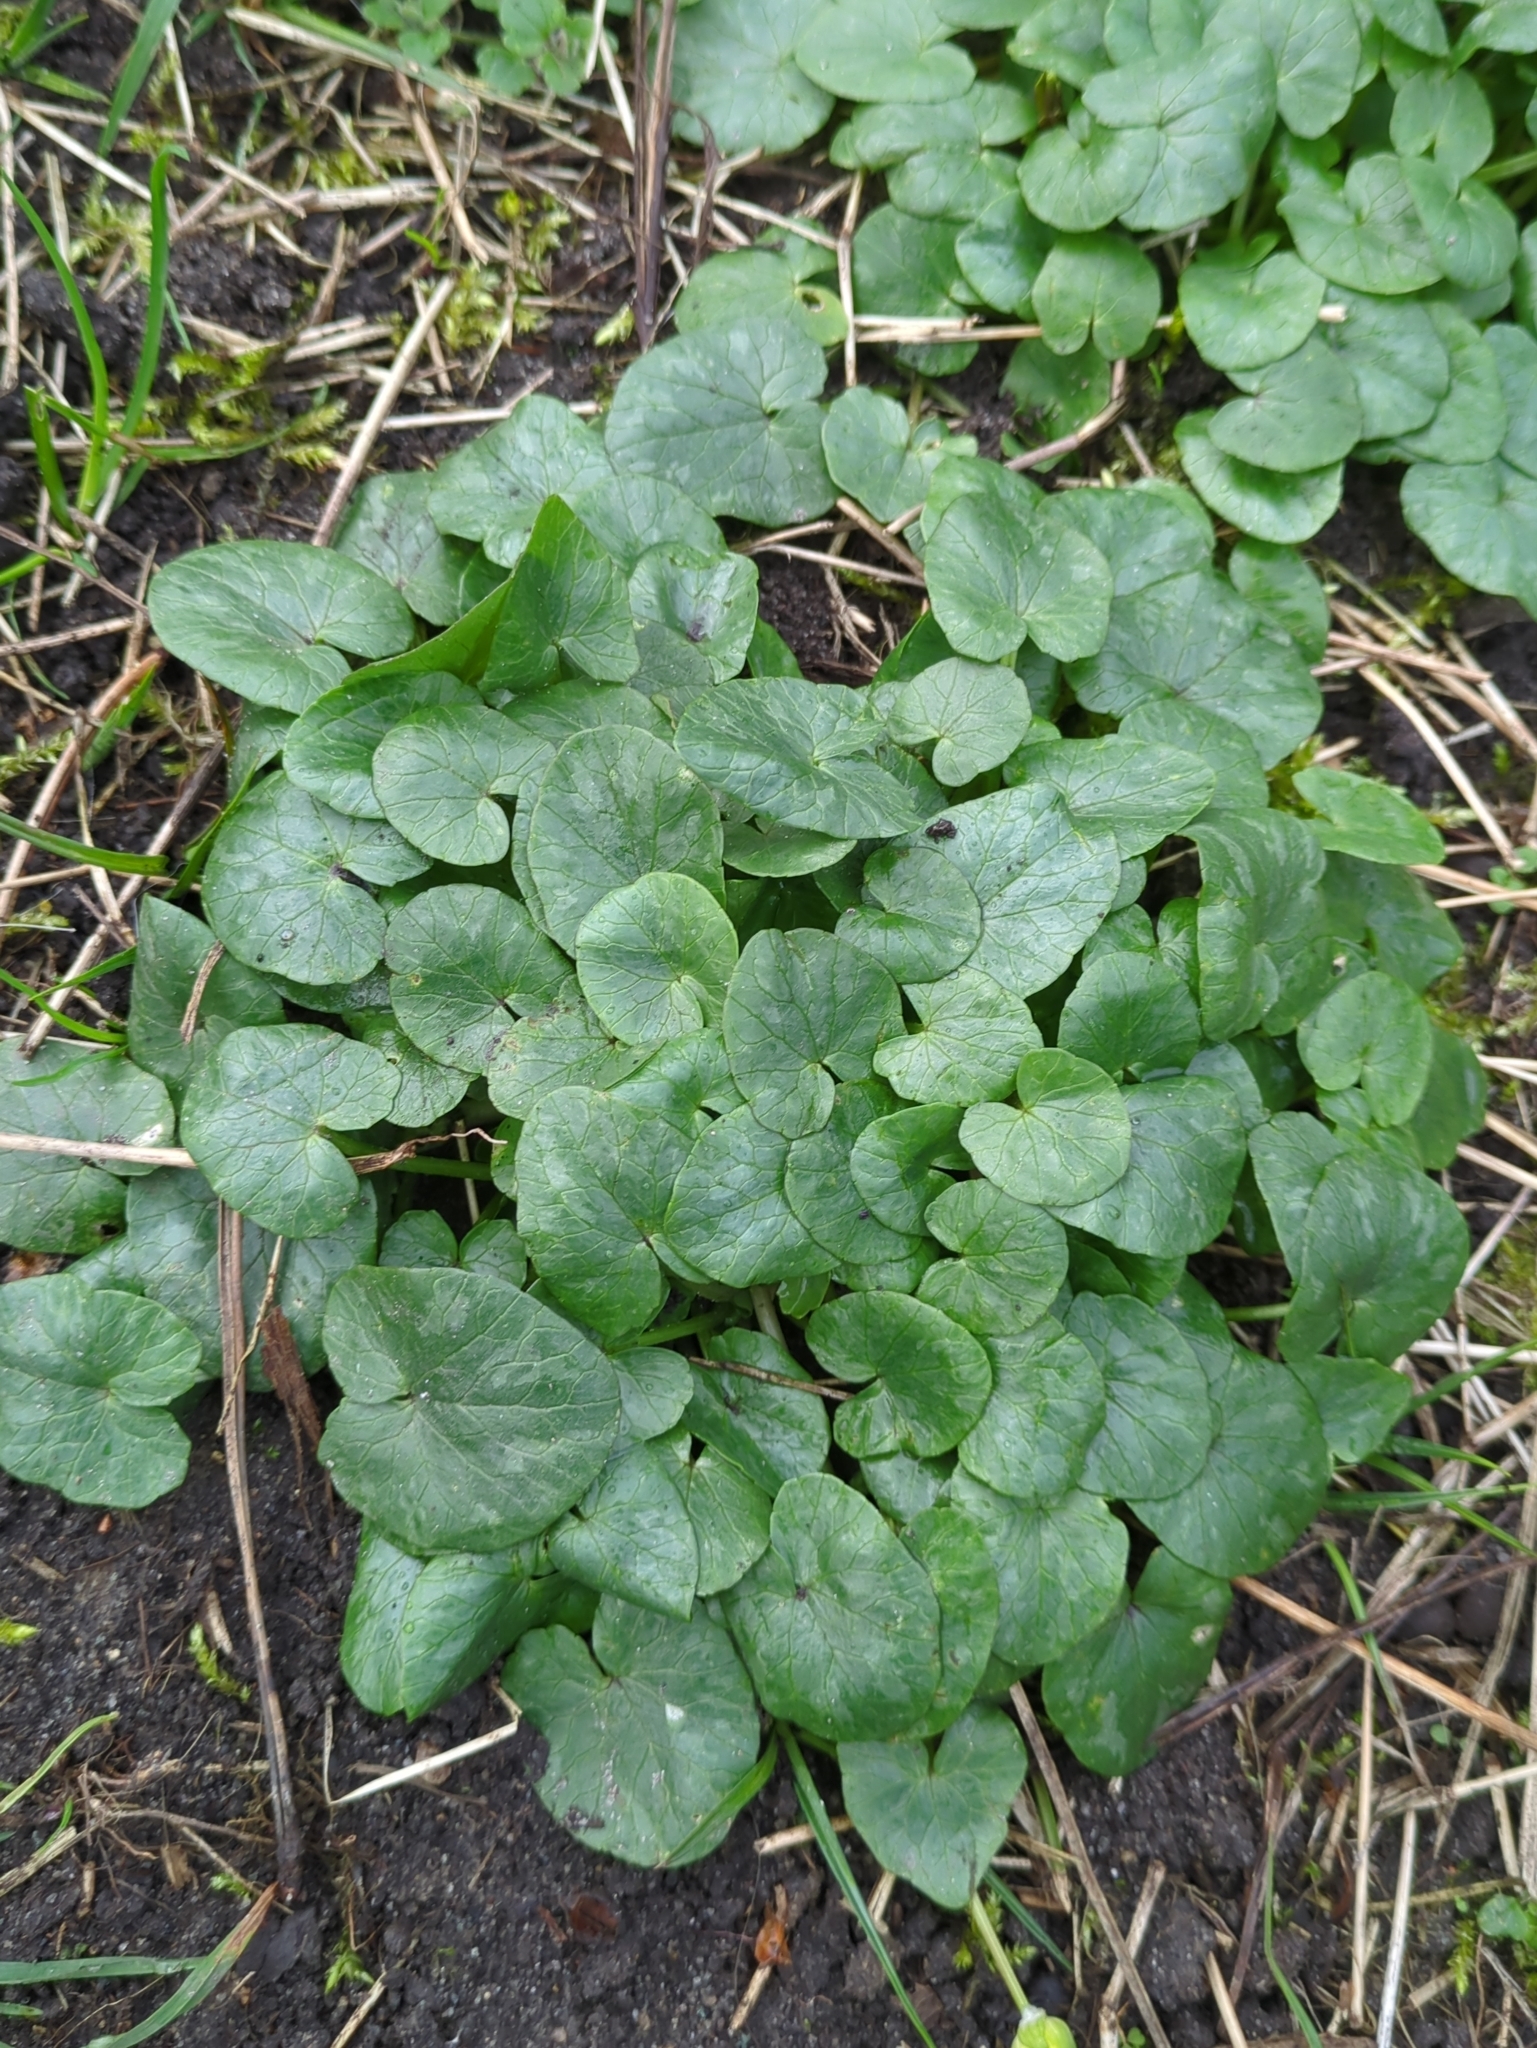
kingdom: Plantae
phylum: Tracheophyta
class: Magnoliopsida
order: Ranunculales
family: Ranunculaceae
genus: Ficaria
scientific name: Ficaria verna
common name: Lesser celandine
